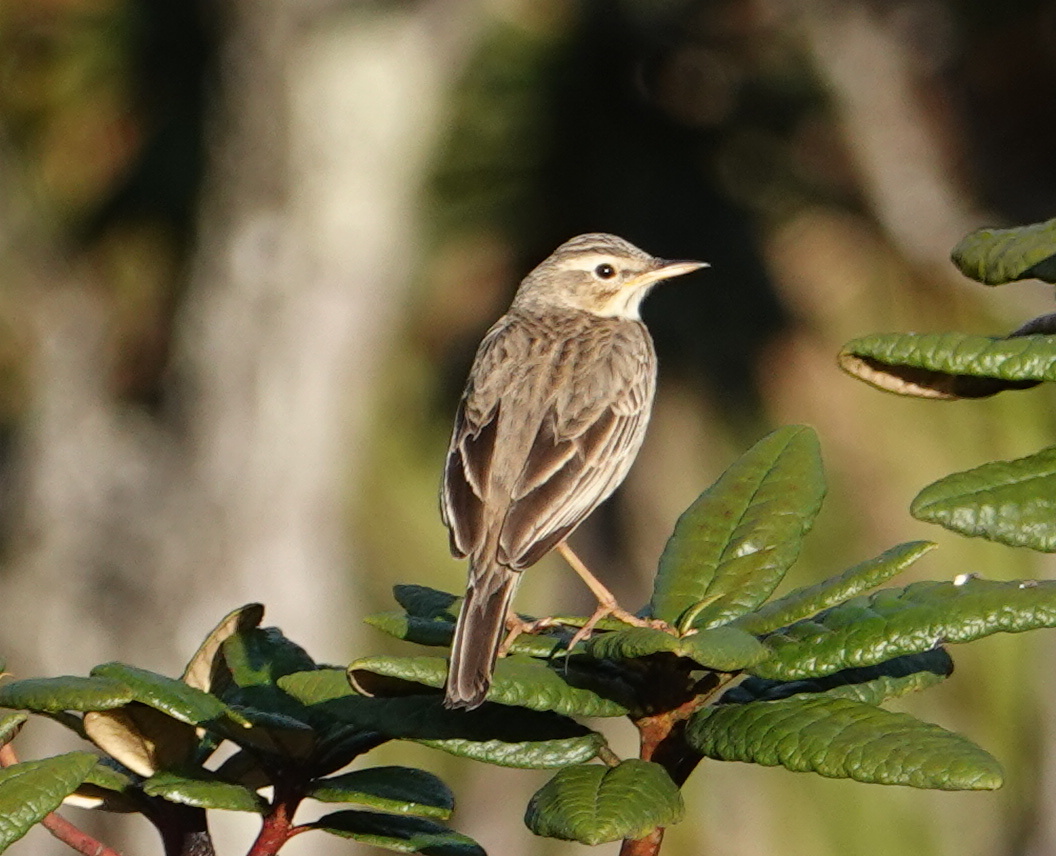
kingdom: Animalia
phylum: Chordata
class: Aves
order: Passeriformes
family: Motacillidae
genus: Anthus
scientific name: Anthus rufulus
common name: Paddyfield pipit
